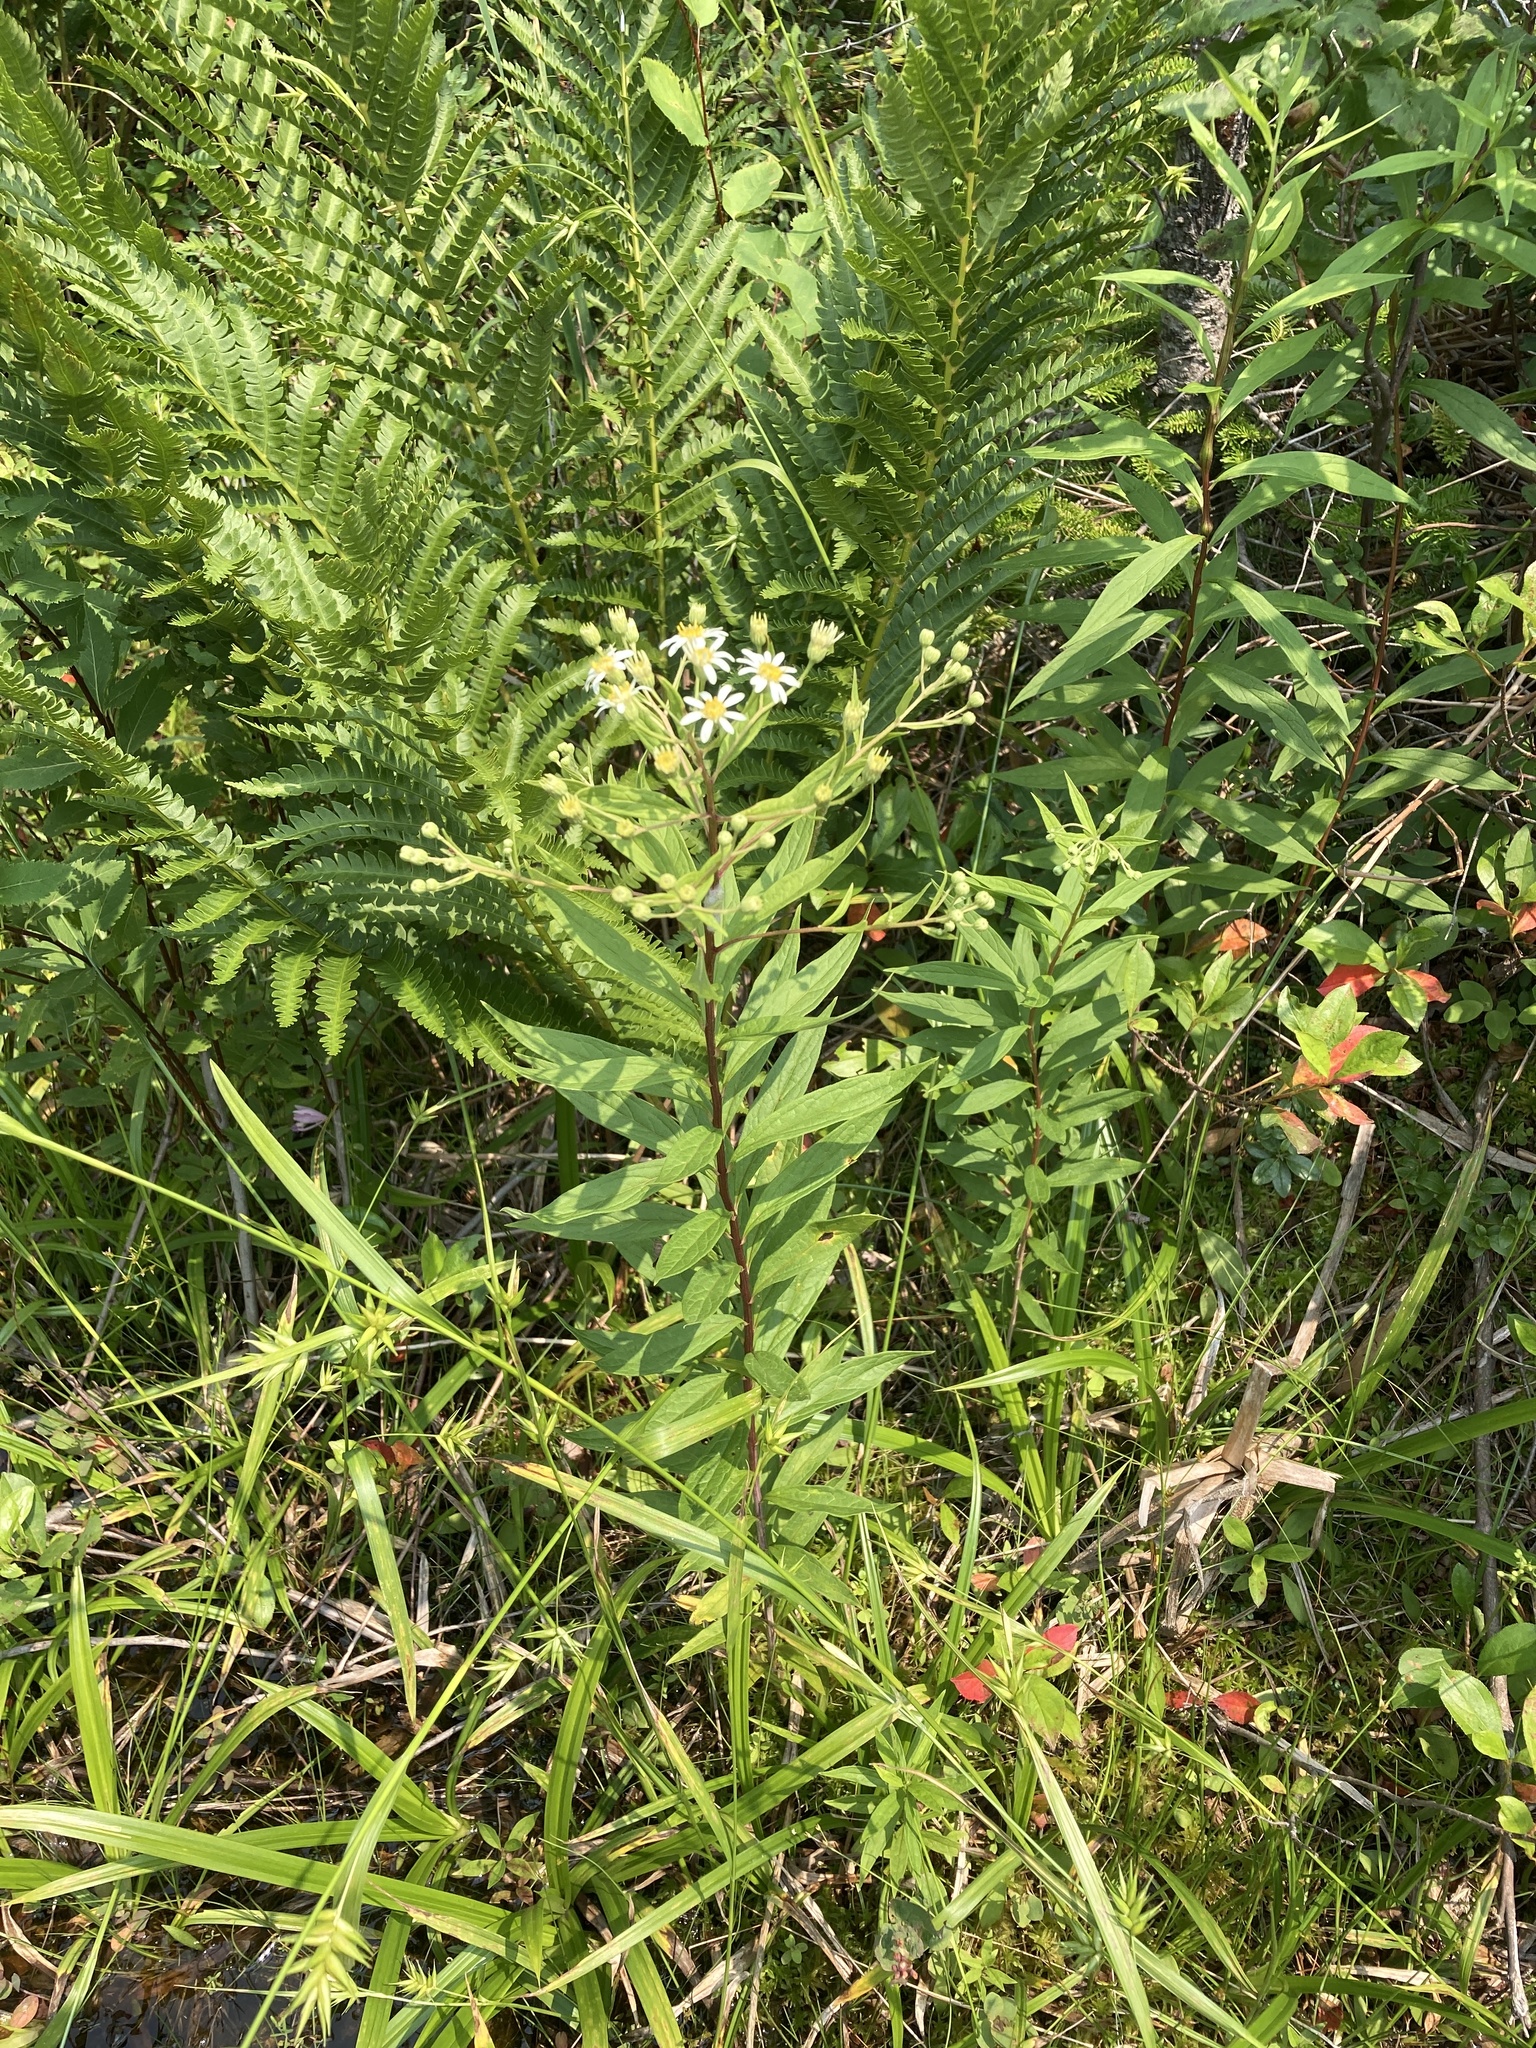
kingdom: Plantae
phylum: Tracheophyta
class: Magnoliopsida
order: Asterales
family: Asteraceae
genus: Doellingeria
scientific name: Doellingeria umbellata
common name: Flat-top white aster
